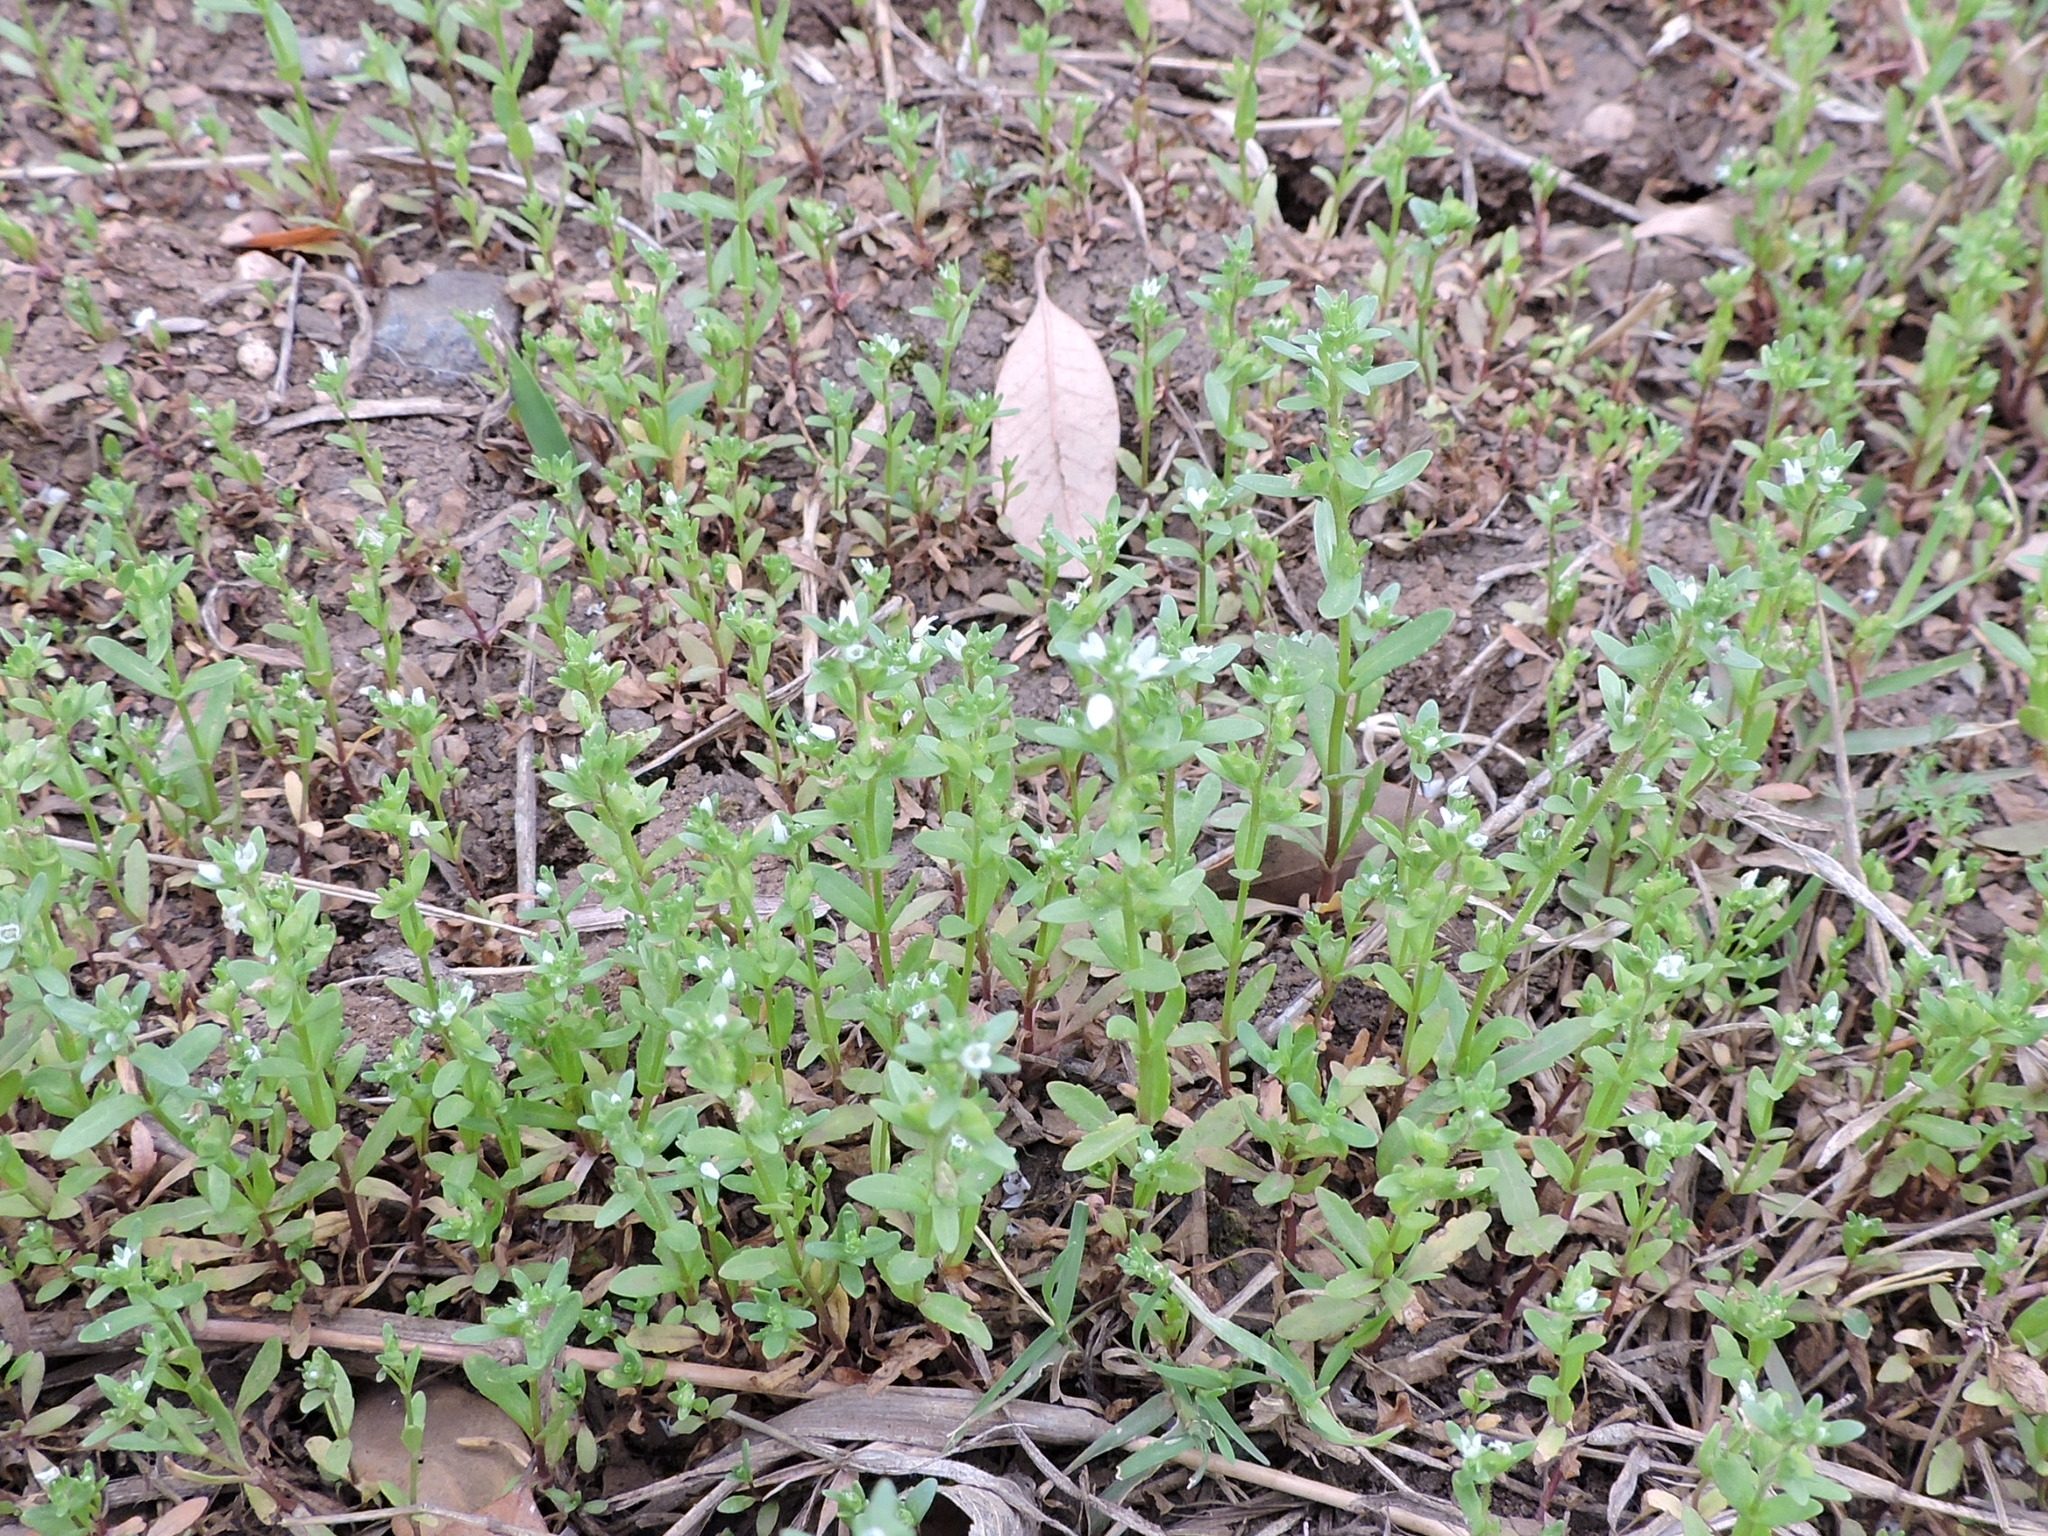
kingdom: Plantae
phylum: Tracheophyta
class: Magnoliopsida
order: Lamiales
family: Plantaginaceae
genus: Veronica
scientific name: Veronica peregrina
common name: Neckweed
